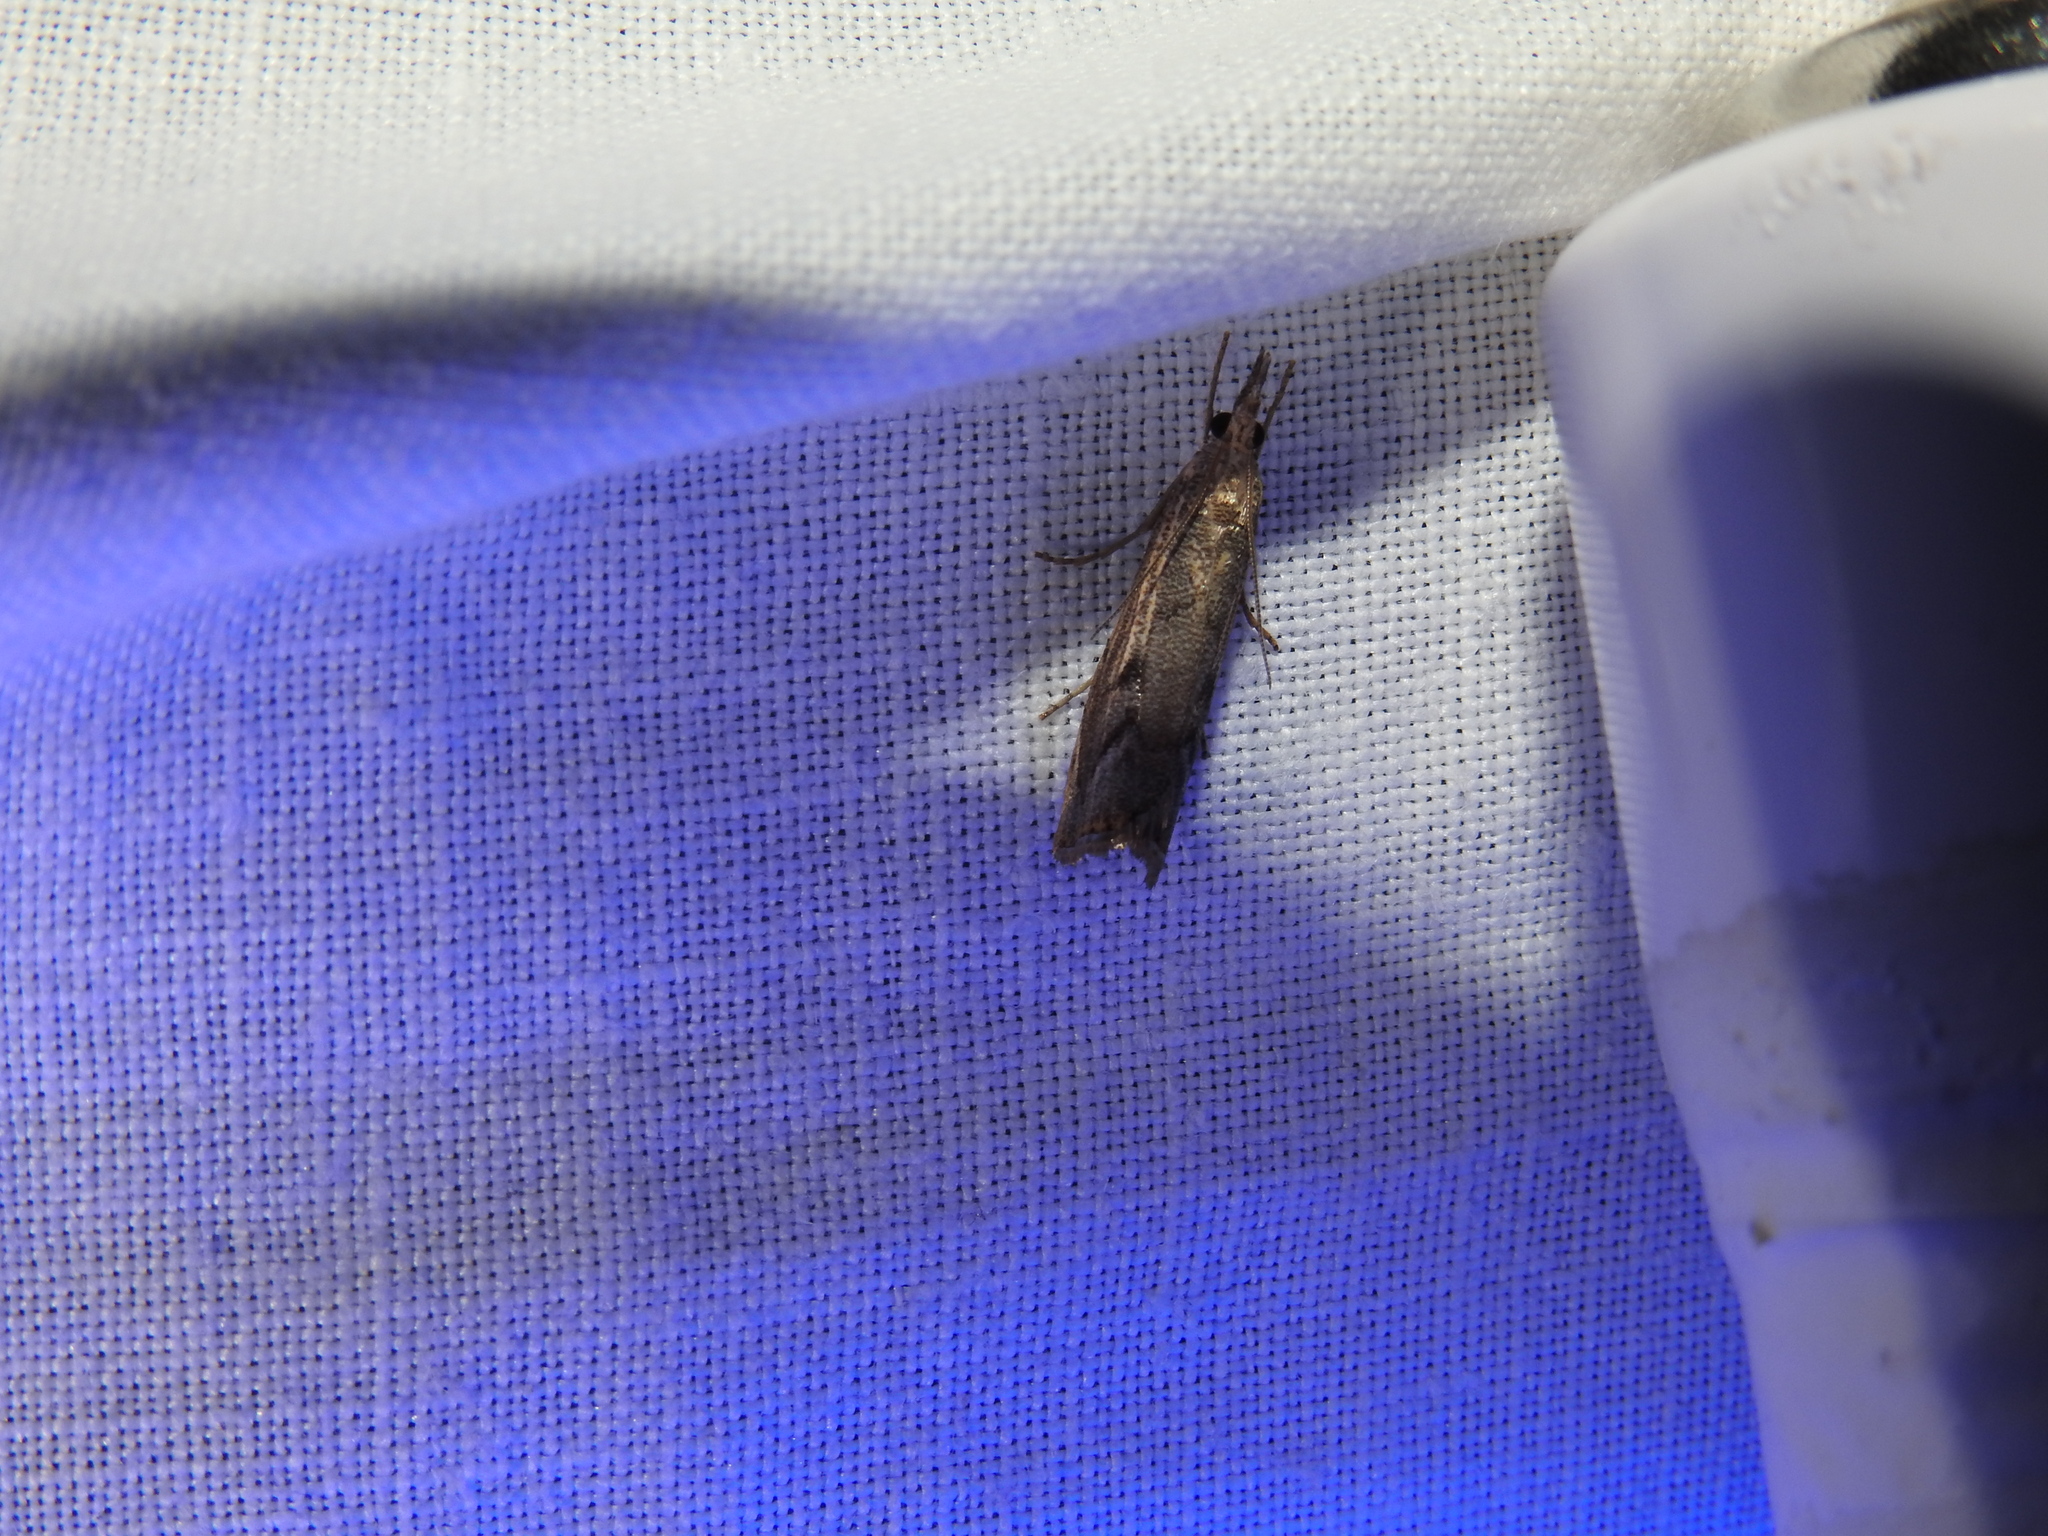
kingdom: Animalia
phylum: Arthropoda
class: Insecta
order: Lepidoptera
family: Crambidae
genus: Agriphila
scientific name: Agriphila geniculea
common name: Elbow-stripe grass-veneer
